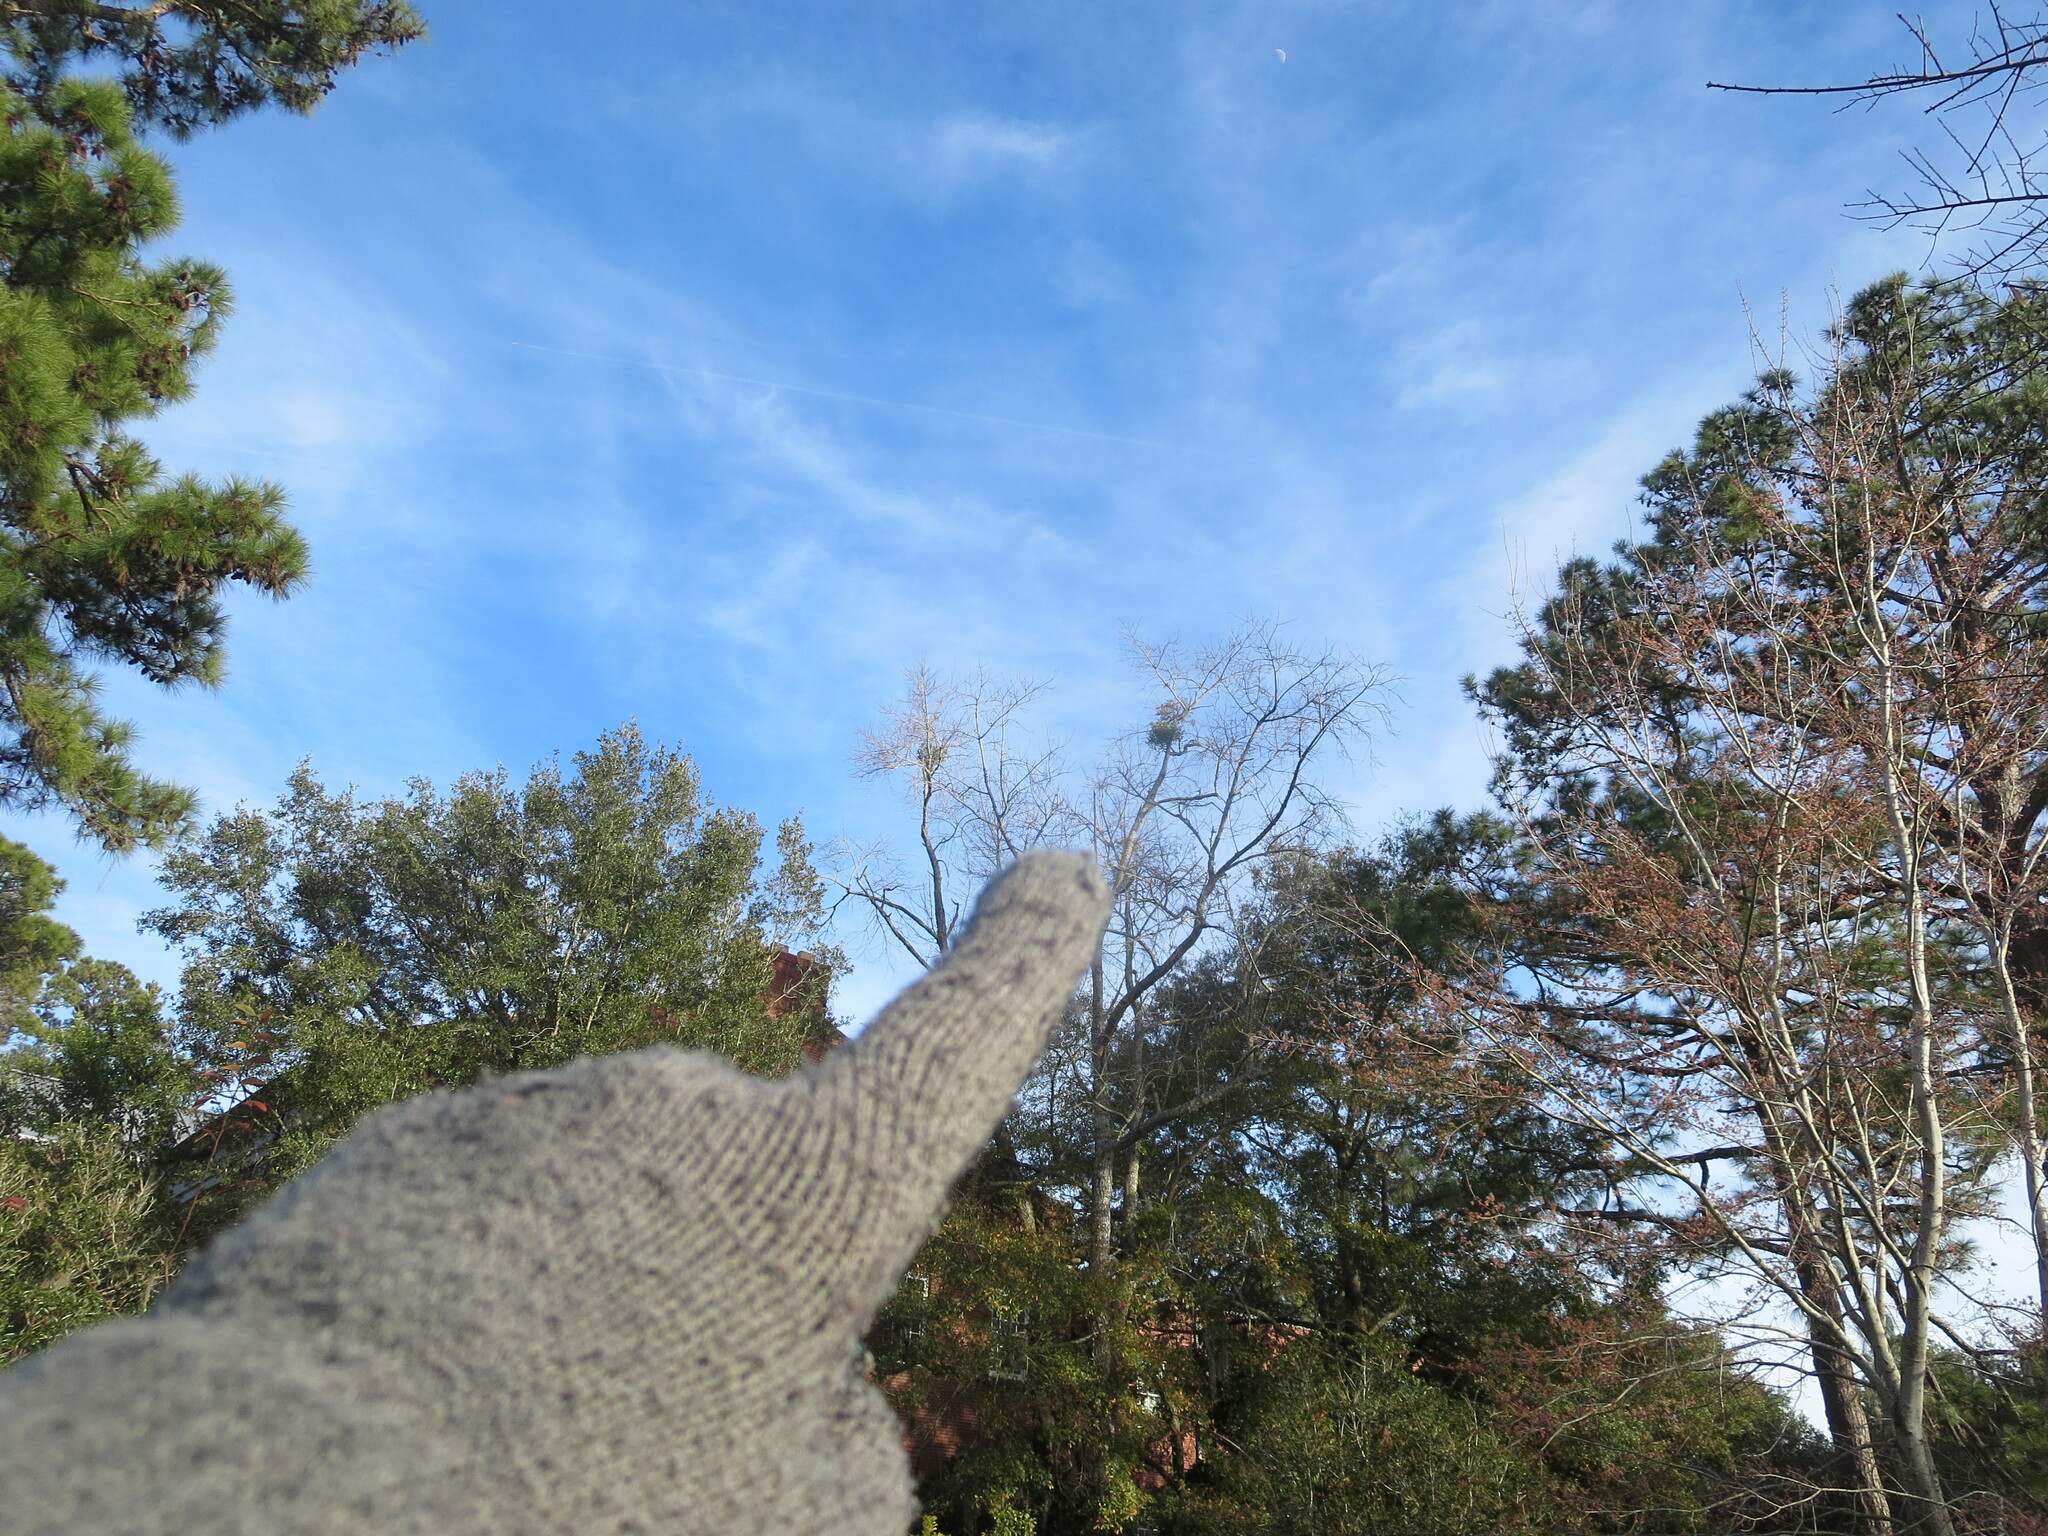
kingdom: Plantae
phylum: Tracheophyta
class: Magnoliopsida
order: Santalales
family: Viscaceae
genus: Phoradendron
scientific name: Phoradendron leucarpum
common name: Pacific mistletoe
